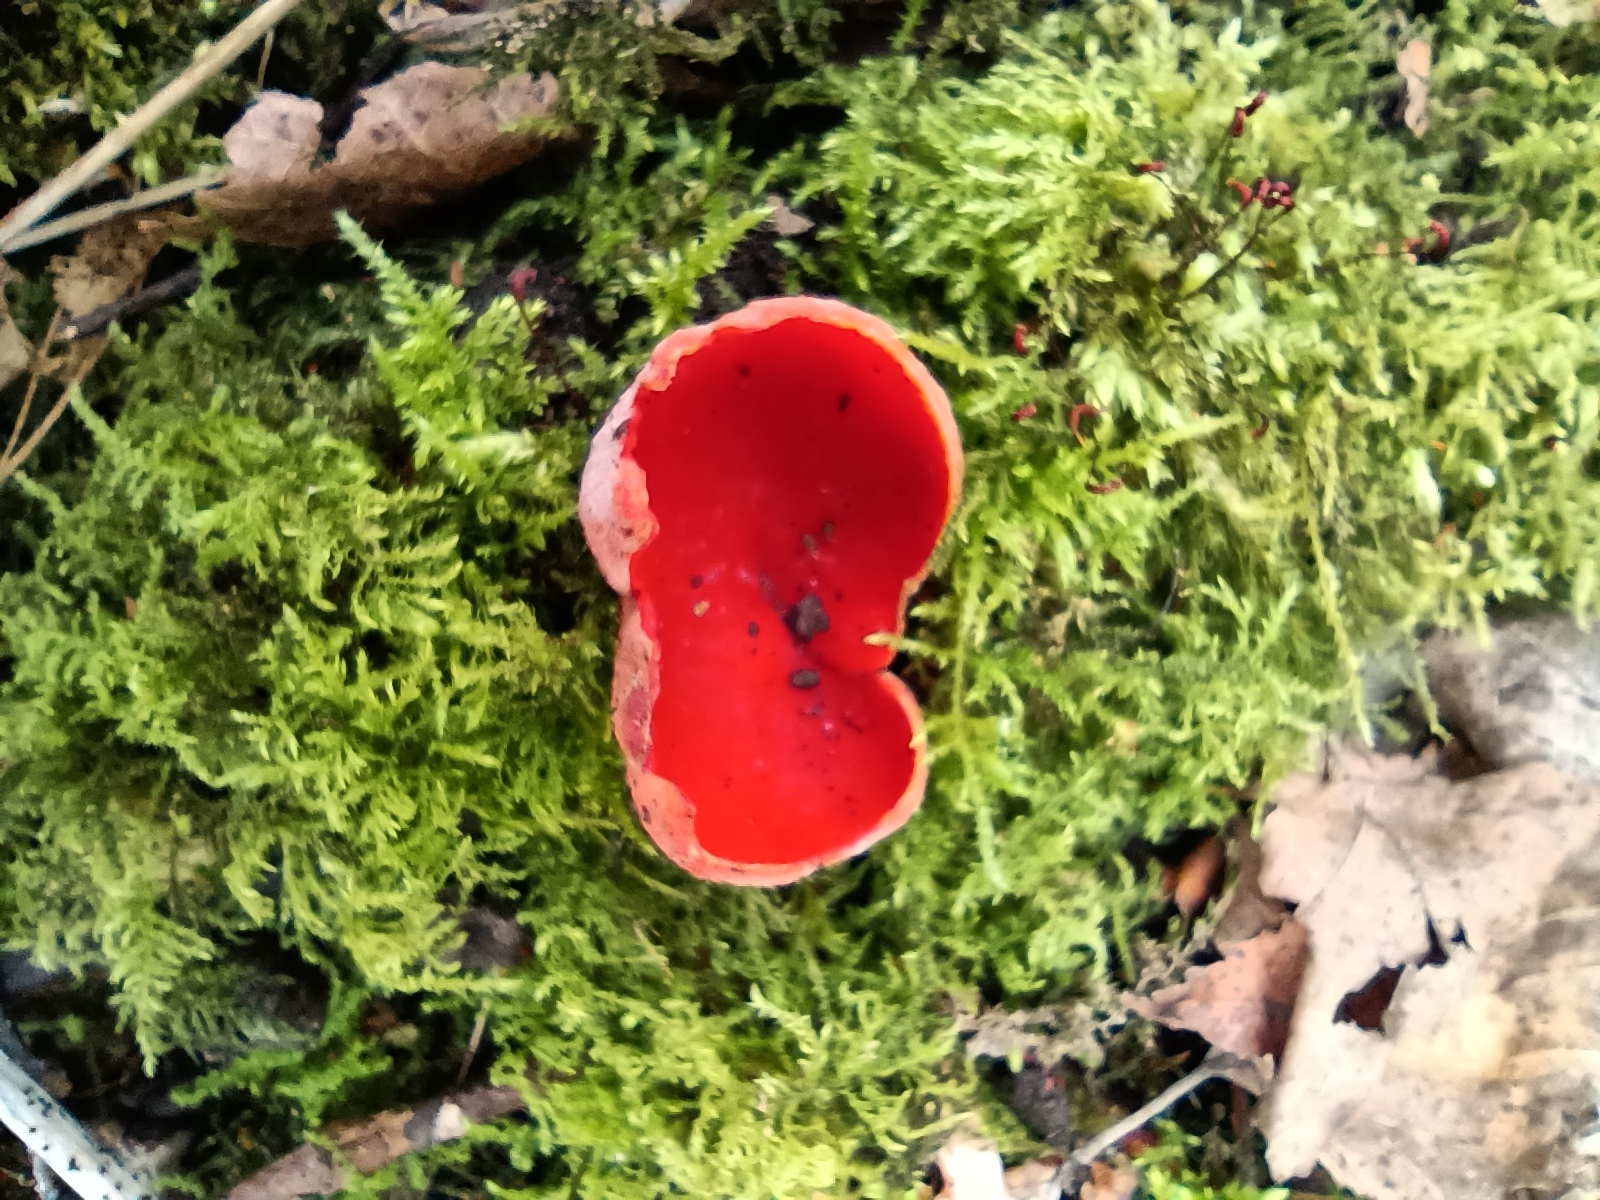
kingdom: Fungi
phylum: Ascomycota
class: Pezizomycetes
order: Pezizales
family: Sarcoscyphaceae
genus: Sarcoscypha
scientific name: Sarcoscypha
